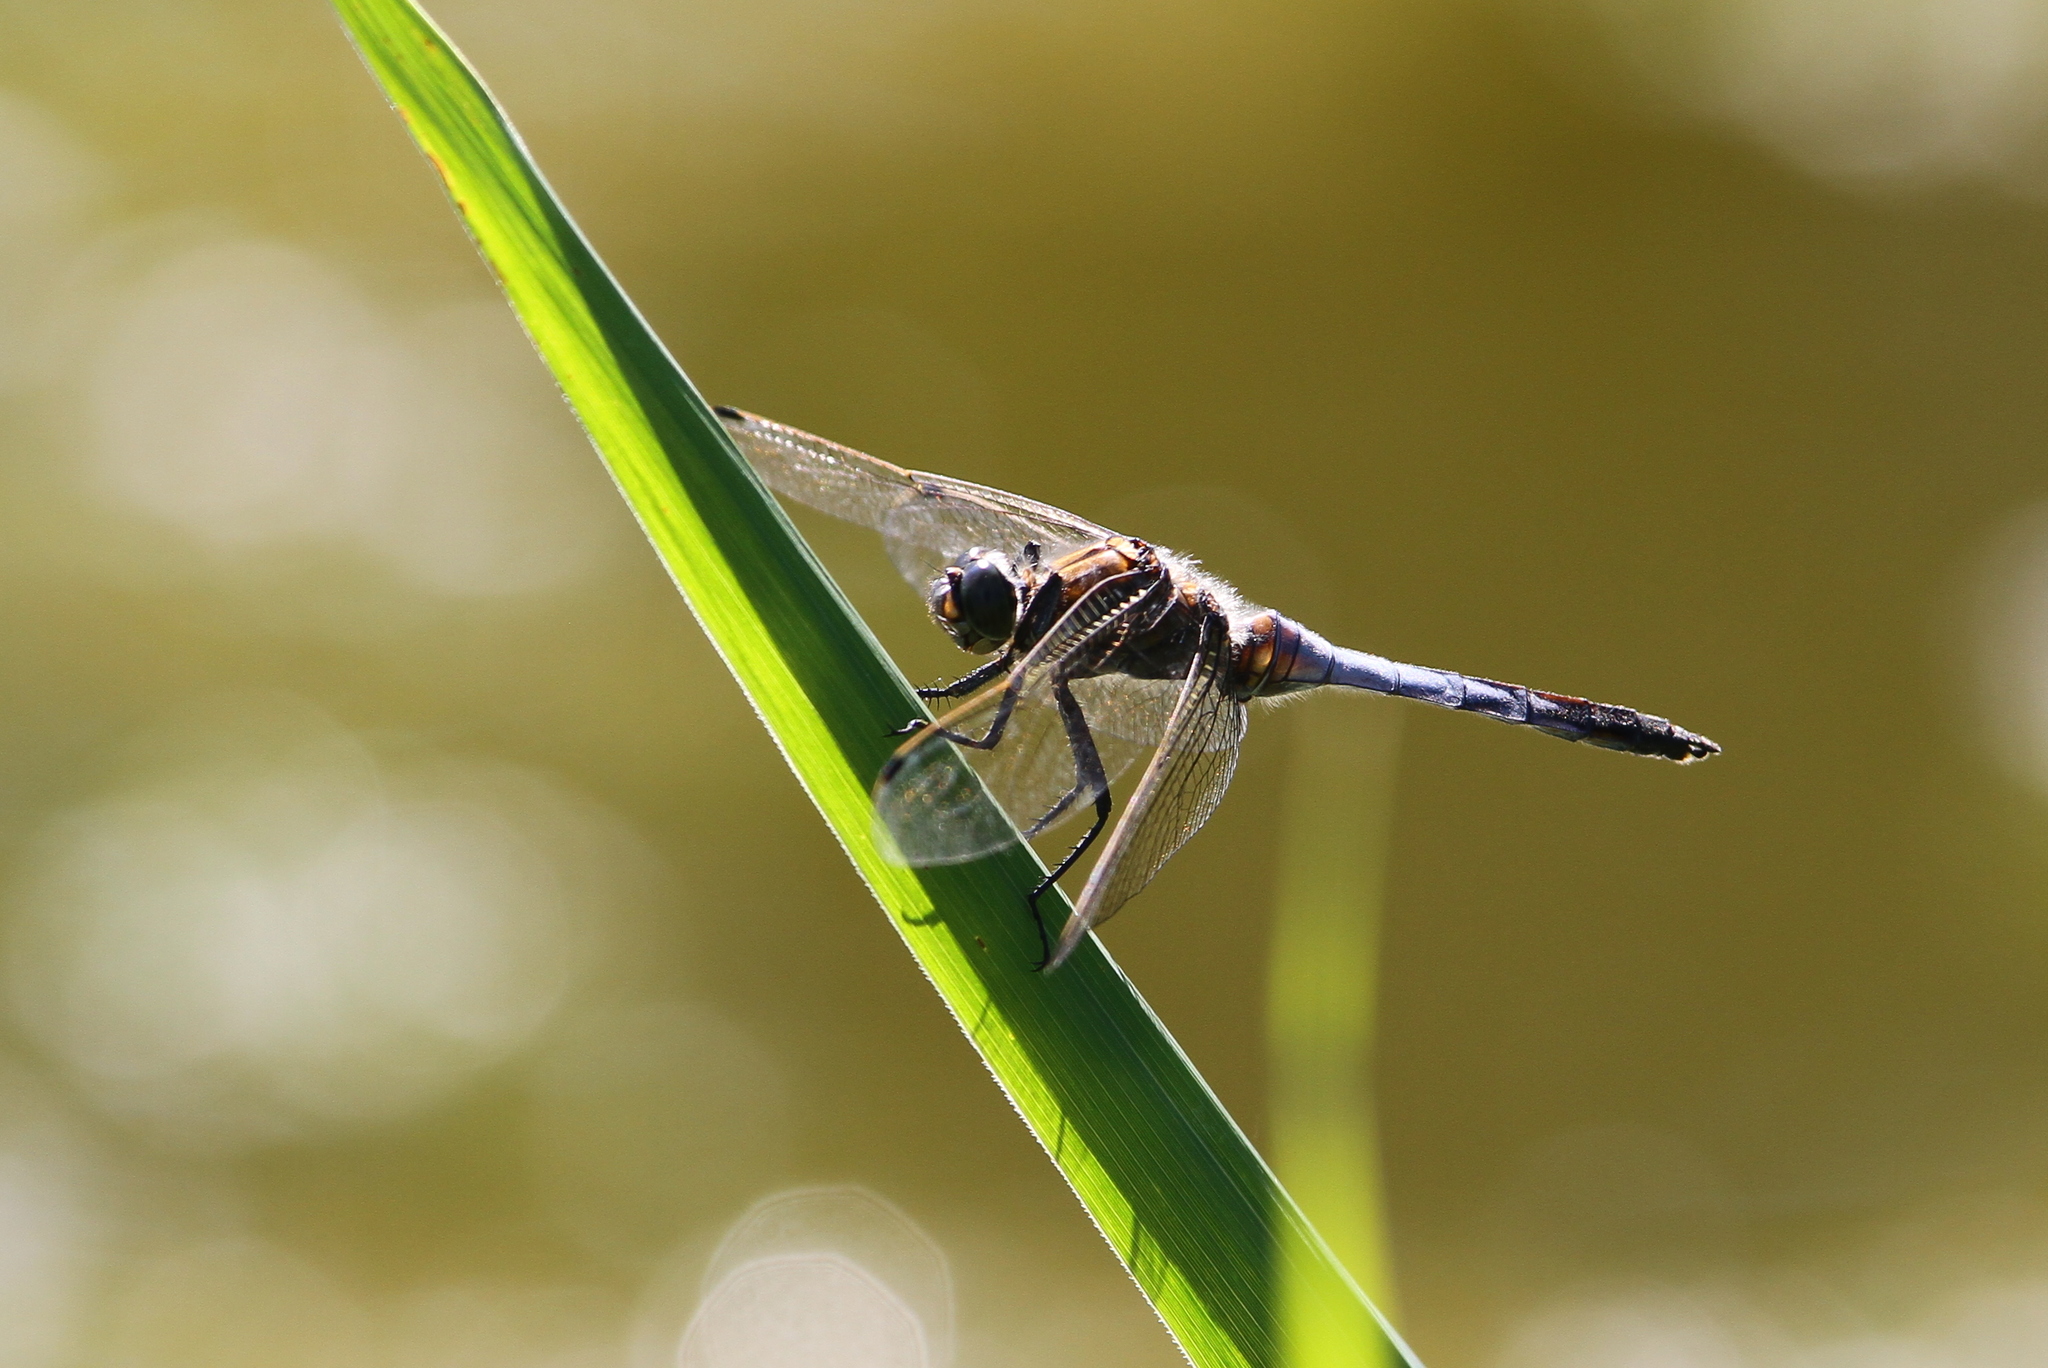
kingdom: Animalia
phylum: Arthropoda
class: Insecta
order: Odonata
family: Libellulidae
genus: Orthetrum
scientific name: Orthetrum albistylum
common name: White-tailed skimmer
